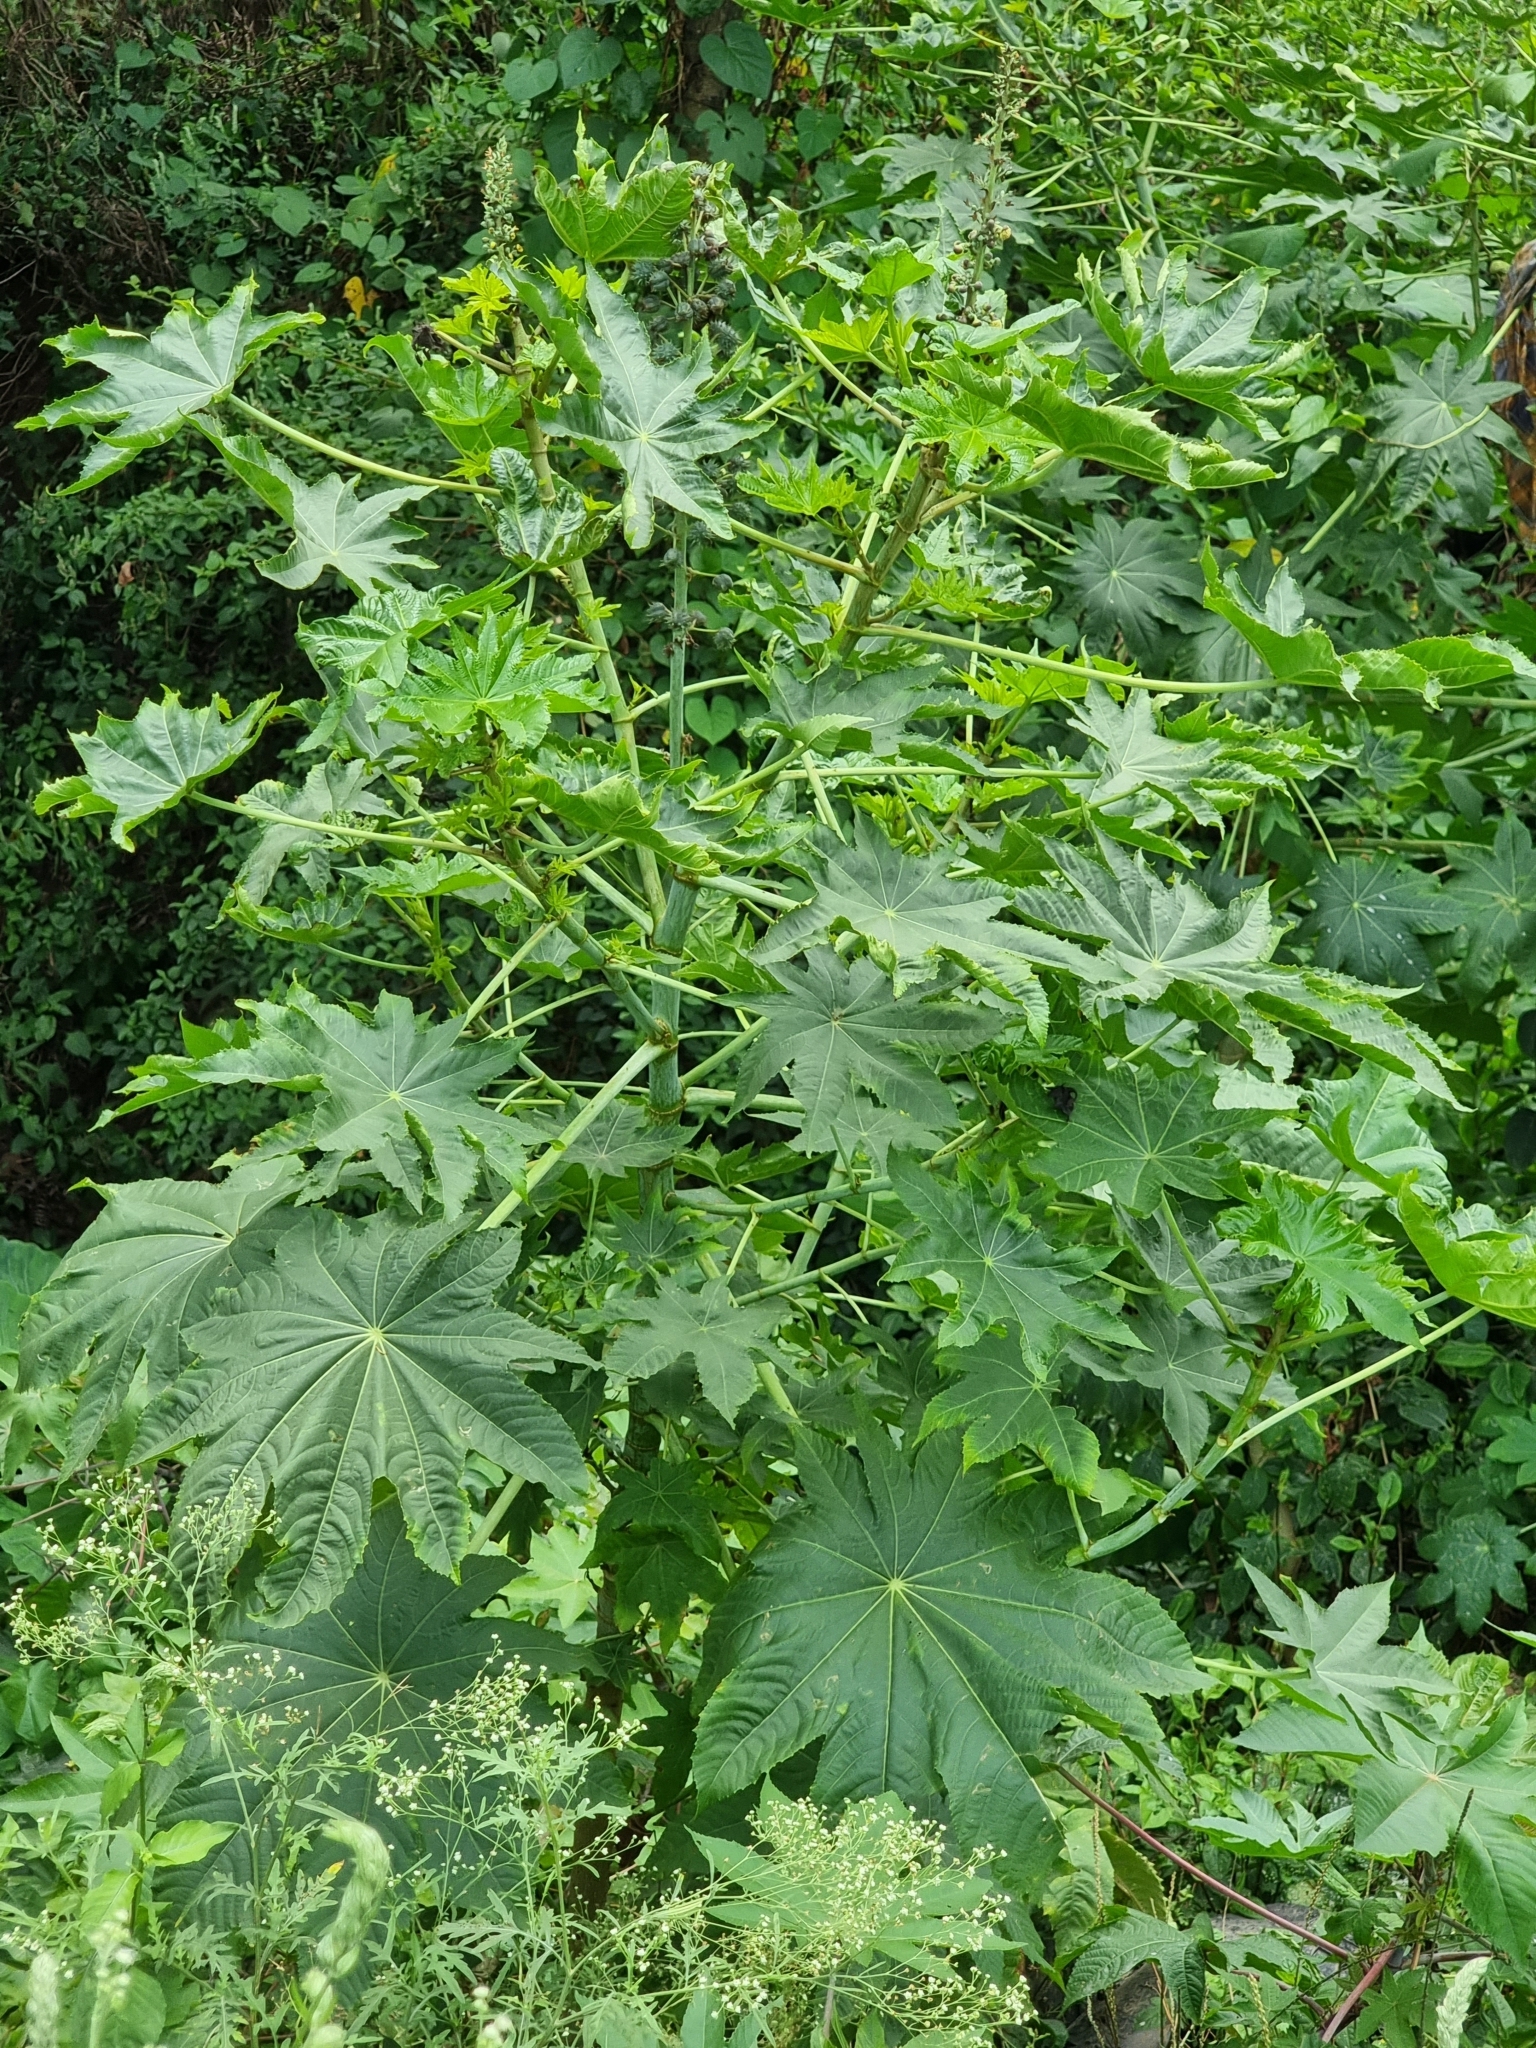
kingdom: Plantae
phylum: Tracheophyta
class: Magnoliopsida
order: Malpighiales
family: Euphorbiaceae
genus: Ricinus
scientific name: Ricinus communis
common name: Castor-oil-plant
